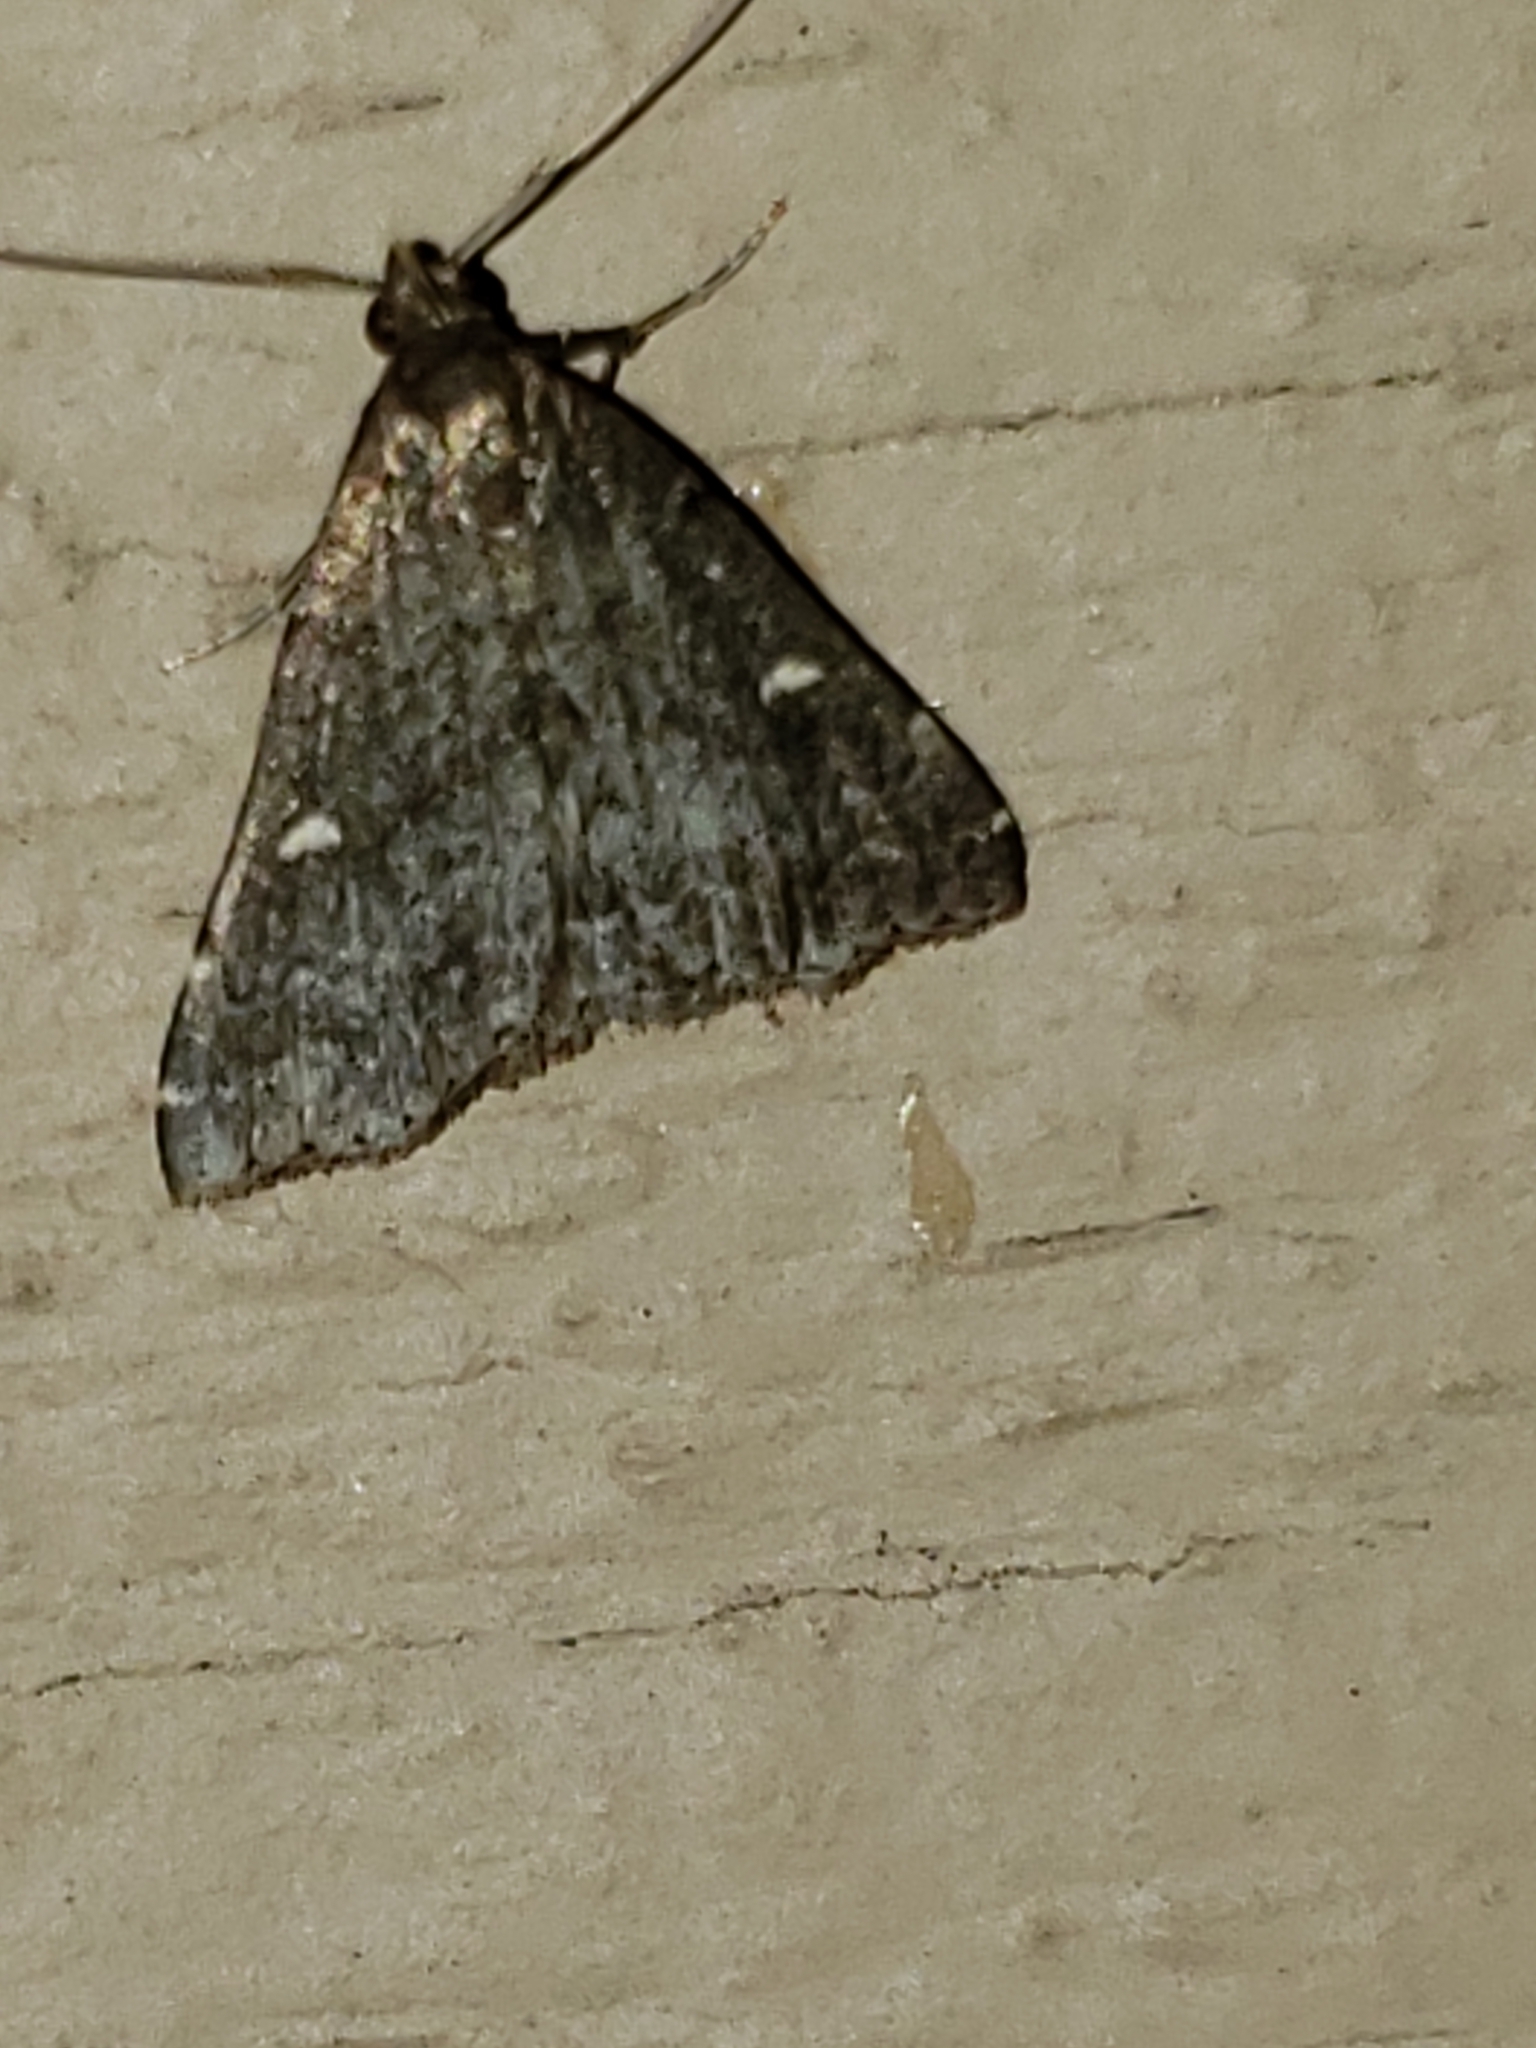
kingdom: Animalia
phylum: Arthropoda
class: Insecta
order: Lepidoptera
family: Erebidae
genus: Tetanolita
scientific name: Tetanolita mynesalis
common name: Smoky tetanolita moth
